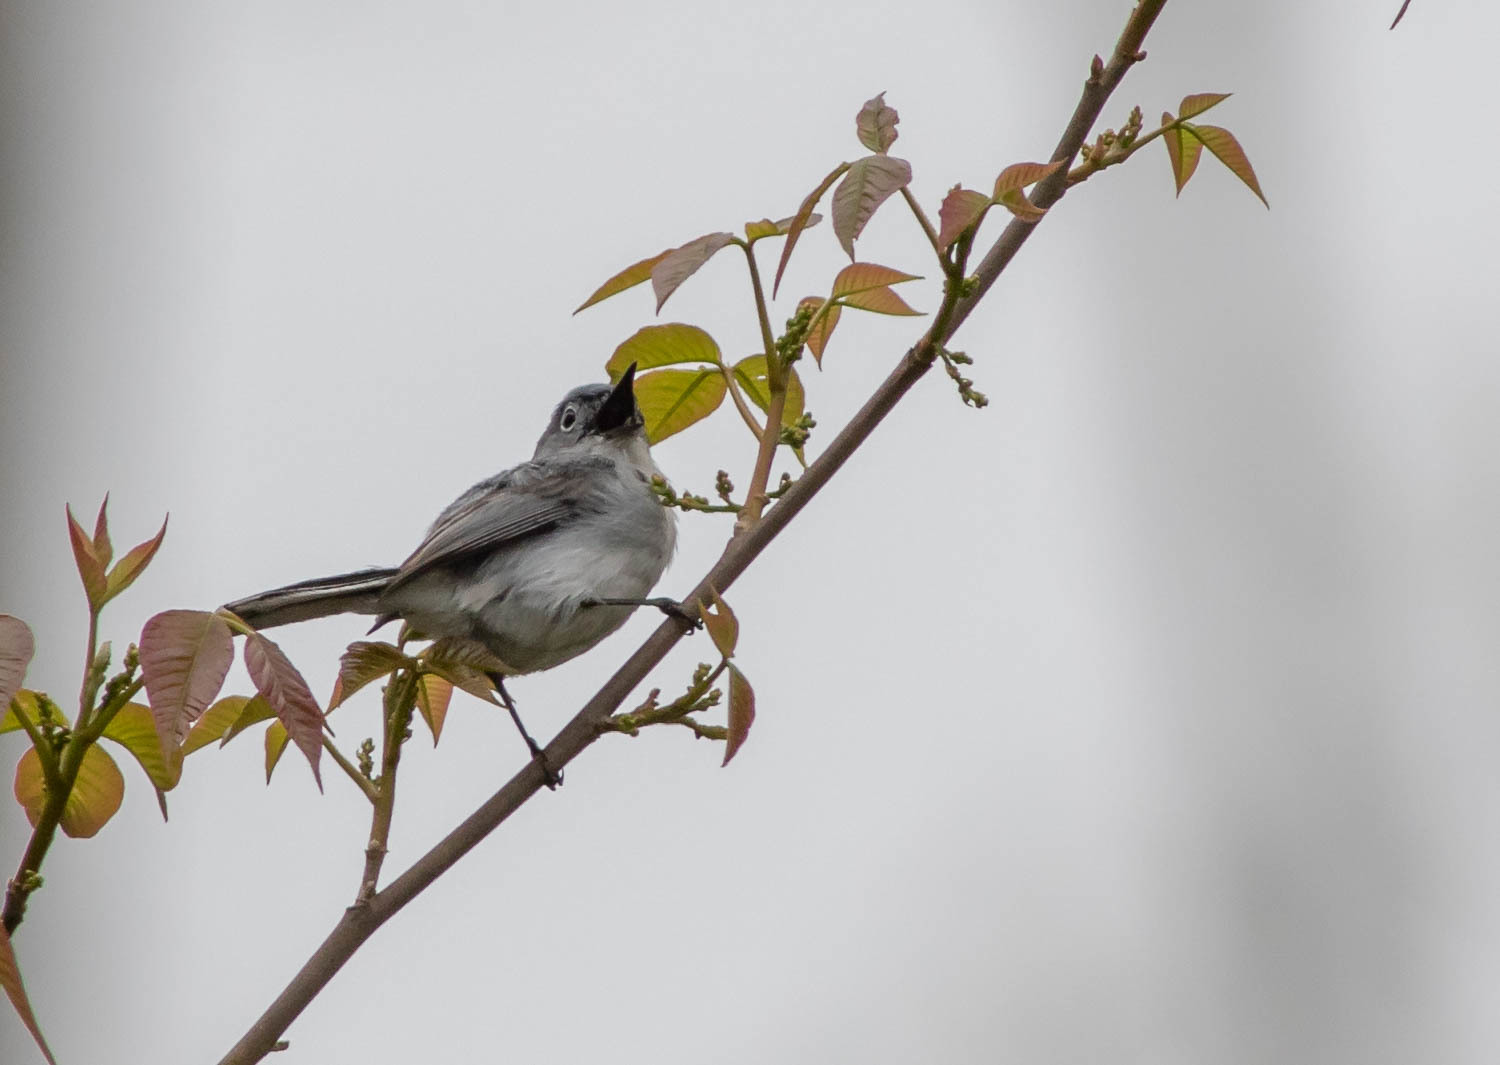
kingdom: Animalia
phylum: Chordata
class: Aves
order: Passeriformes
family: Polioptilidae
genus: Polioptila
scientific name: Polioptila caerulea
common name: Blue-gray gnatcatcher
